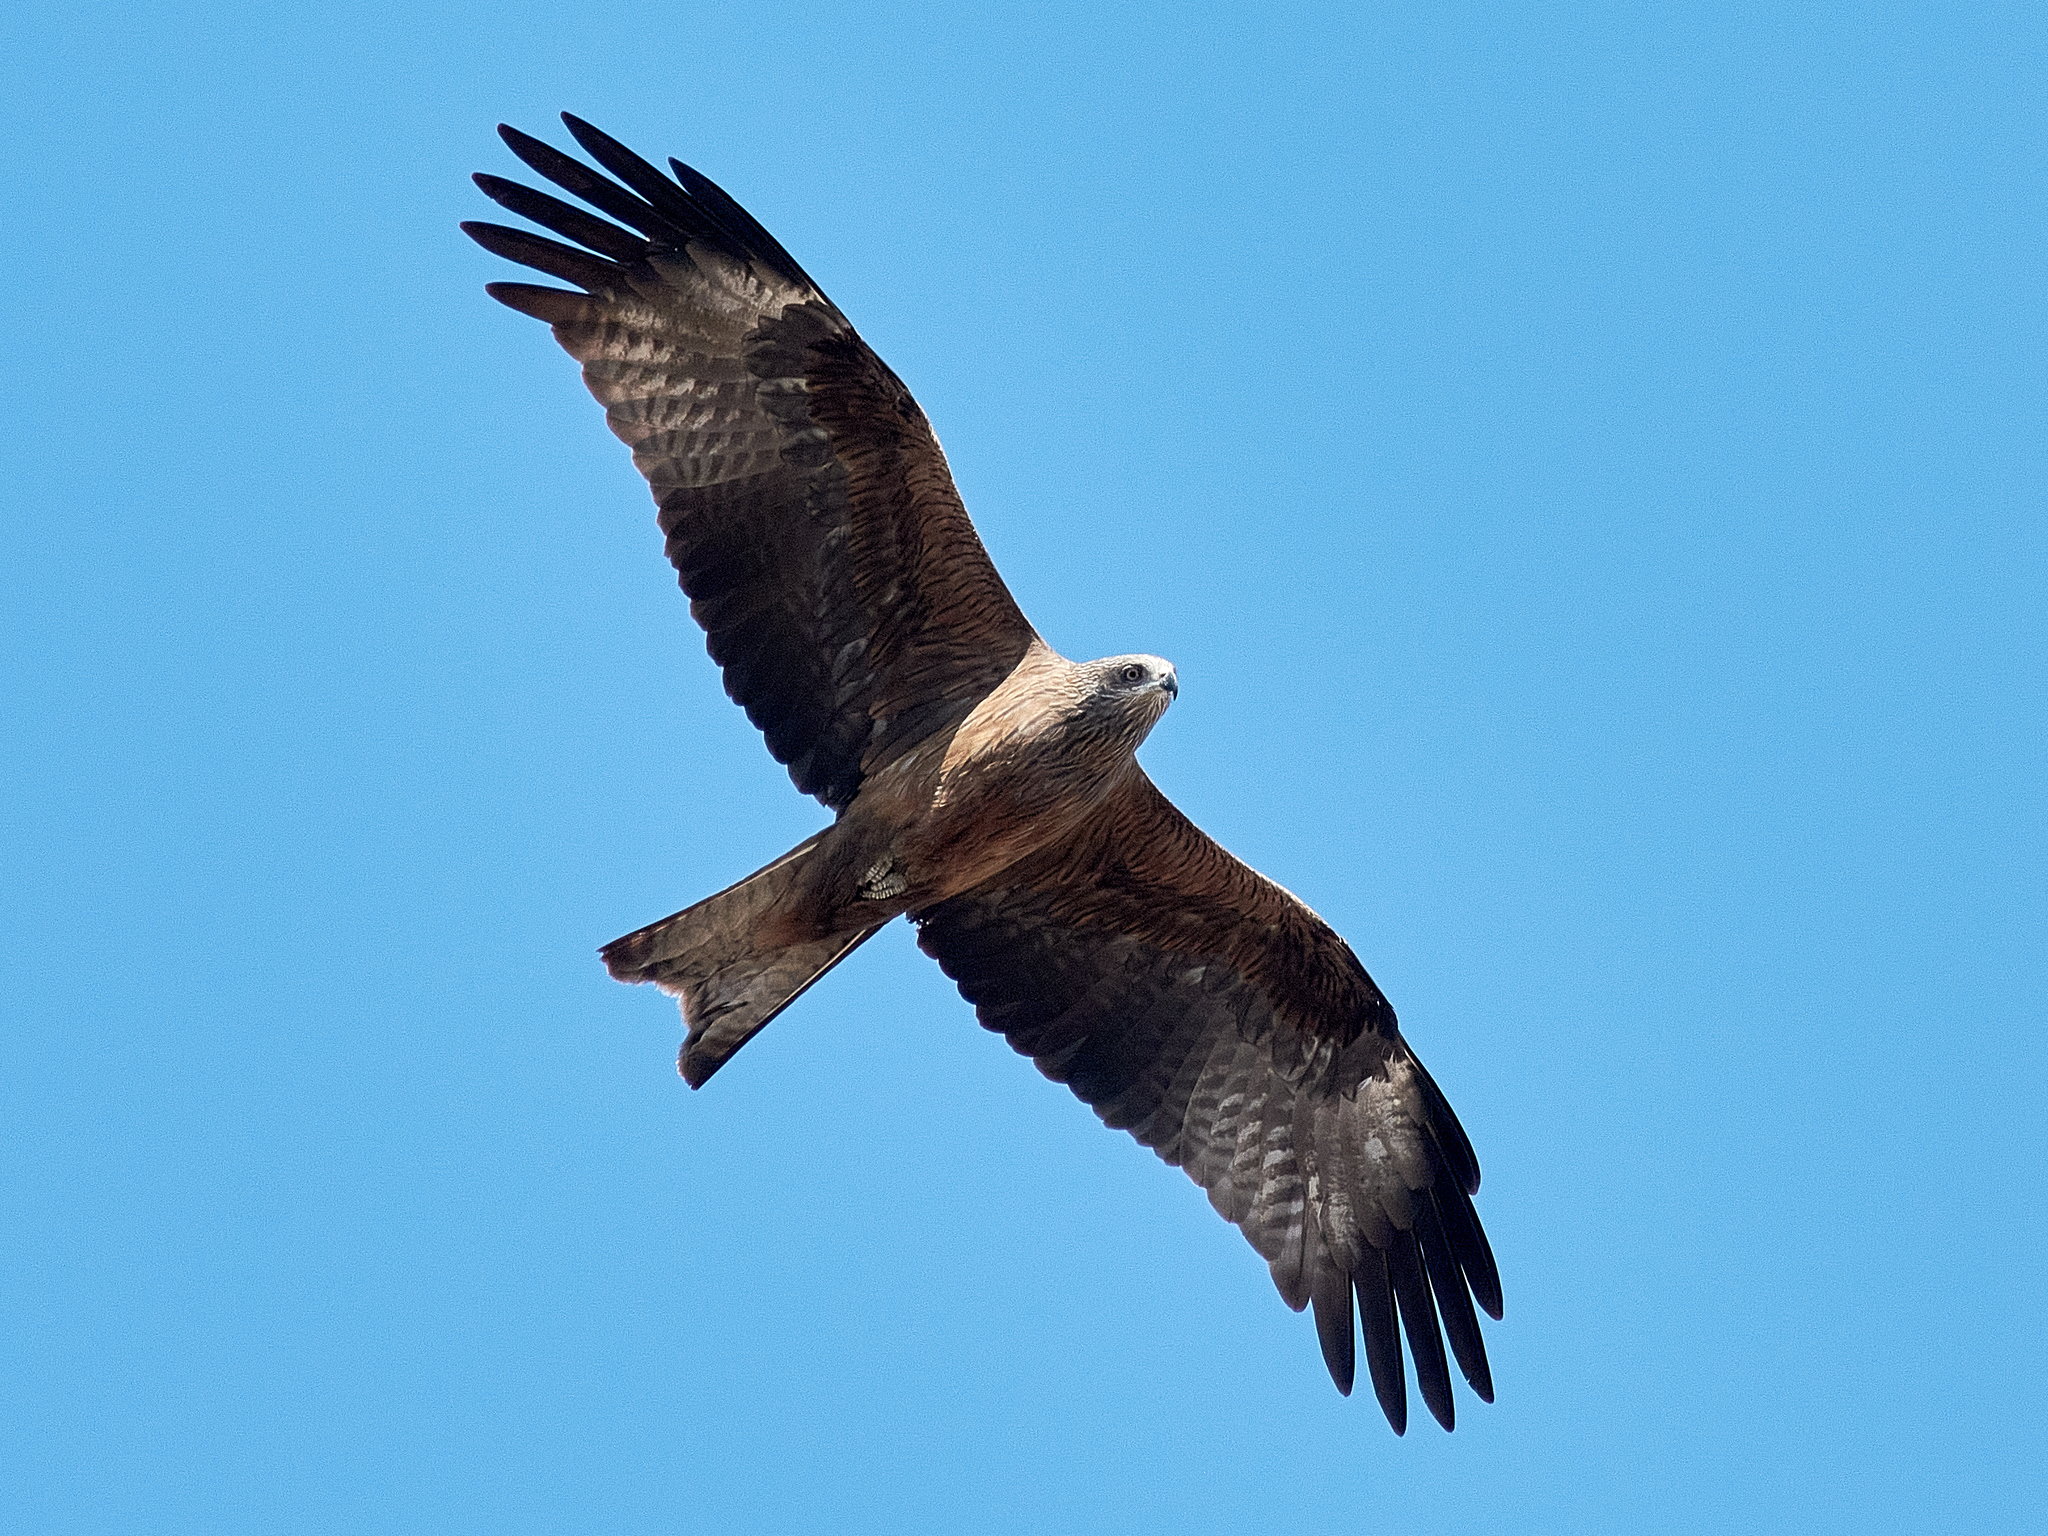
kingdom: Animalia
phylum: Chordata
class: Aves
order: Accipitriformes
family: Accipitridae
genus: Milvus
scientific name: Milvus migrans
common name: Black kite
